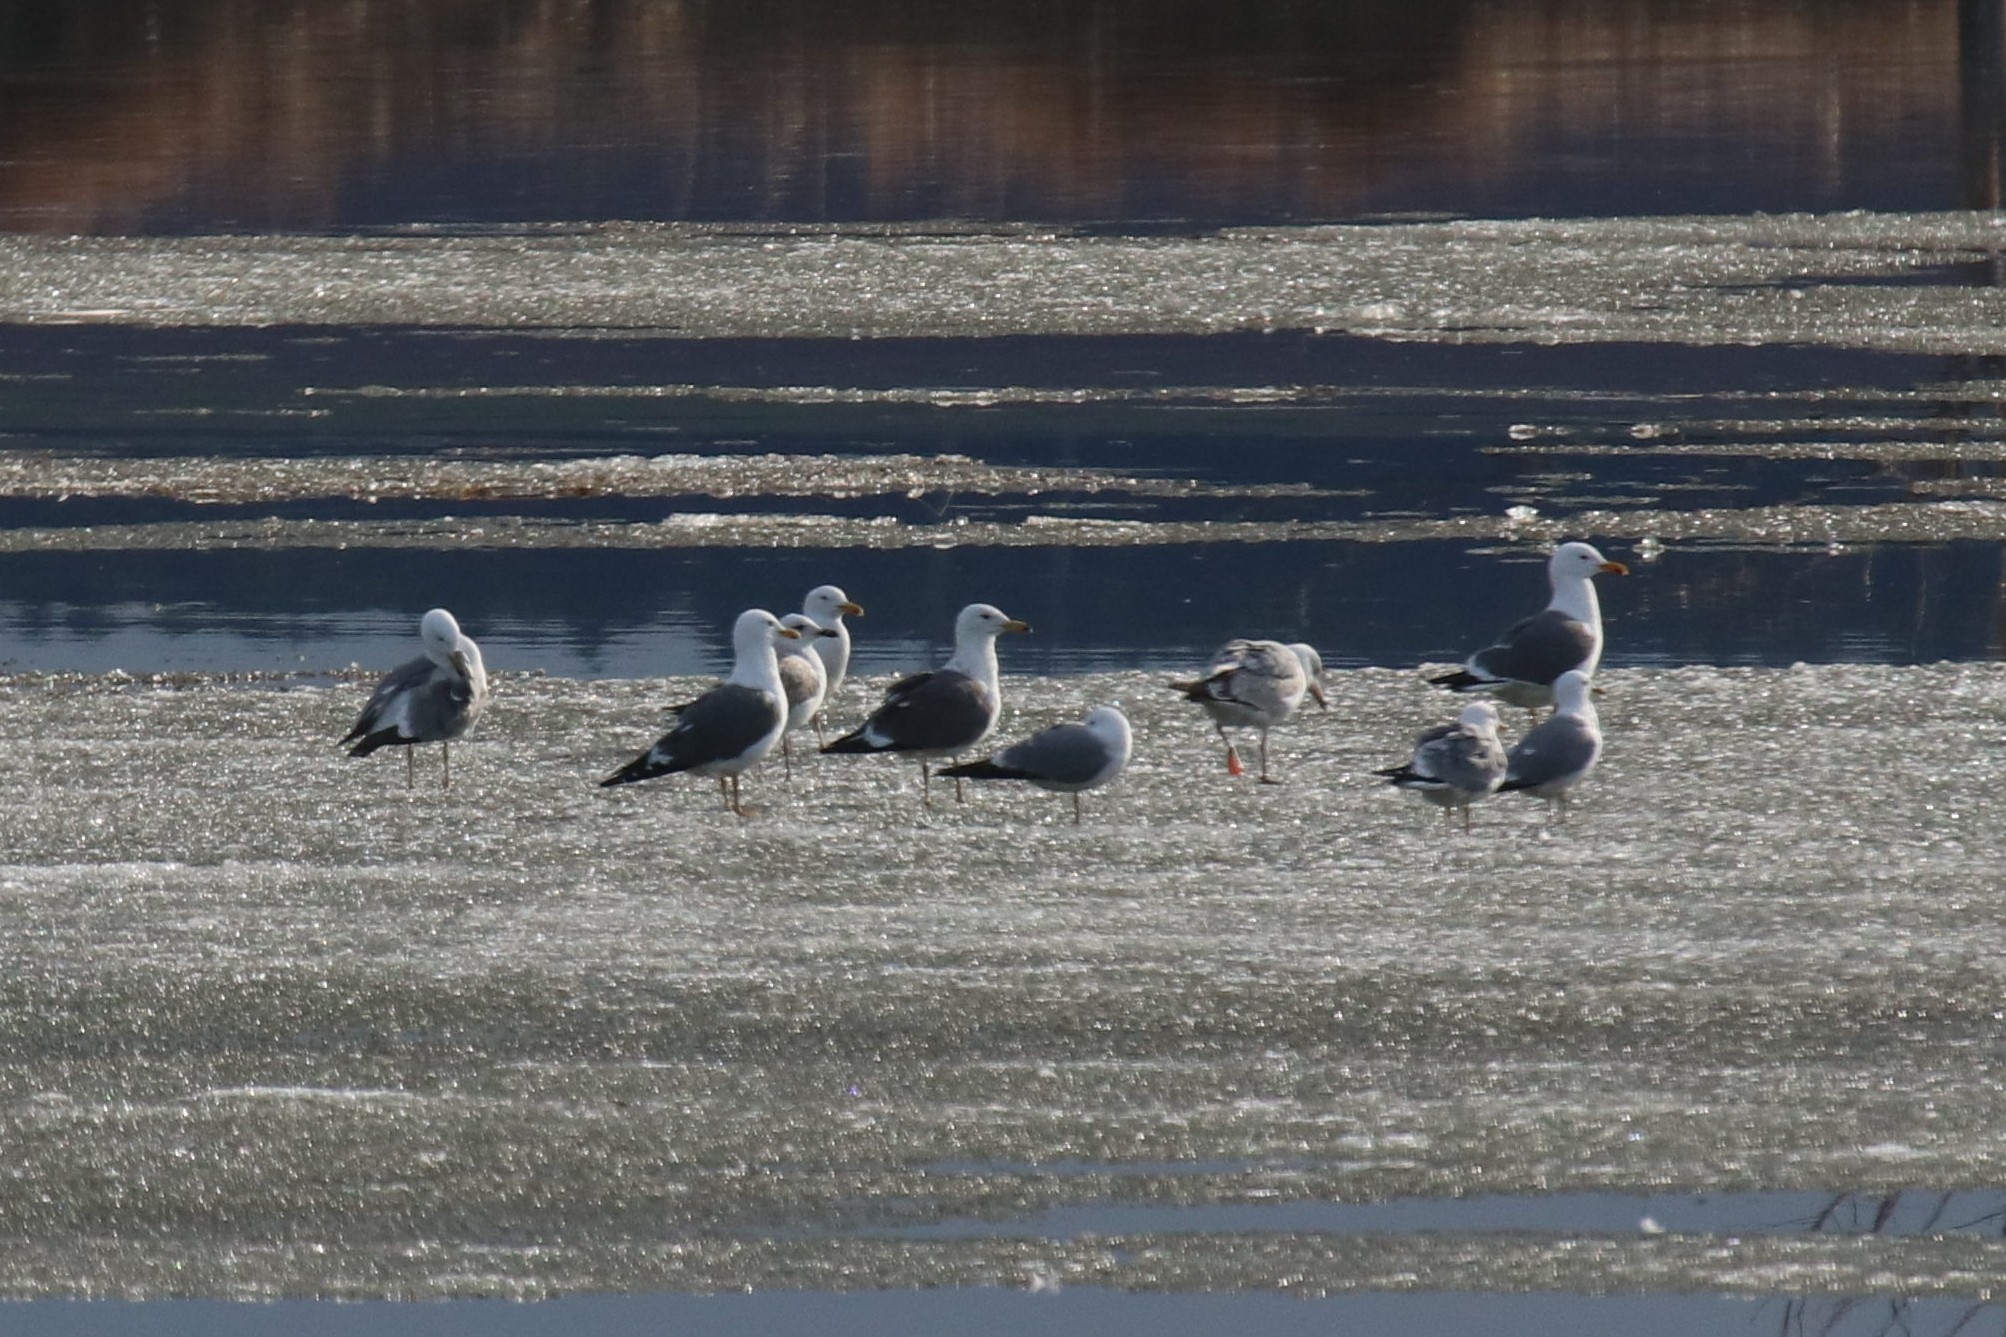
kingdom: Animalia
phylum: Chordata
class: Aves
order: Charadriiformes
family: Laridae
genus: Larus
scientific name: Larus fuscus
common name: Lesser black-backed gull
